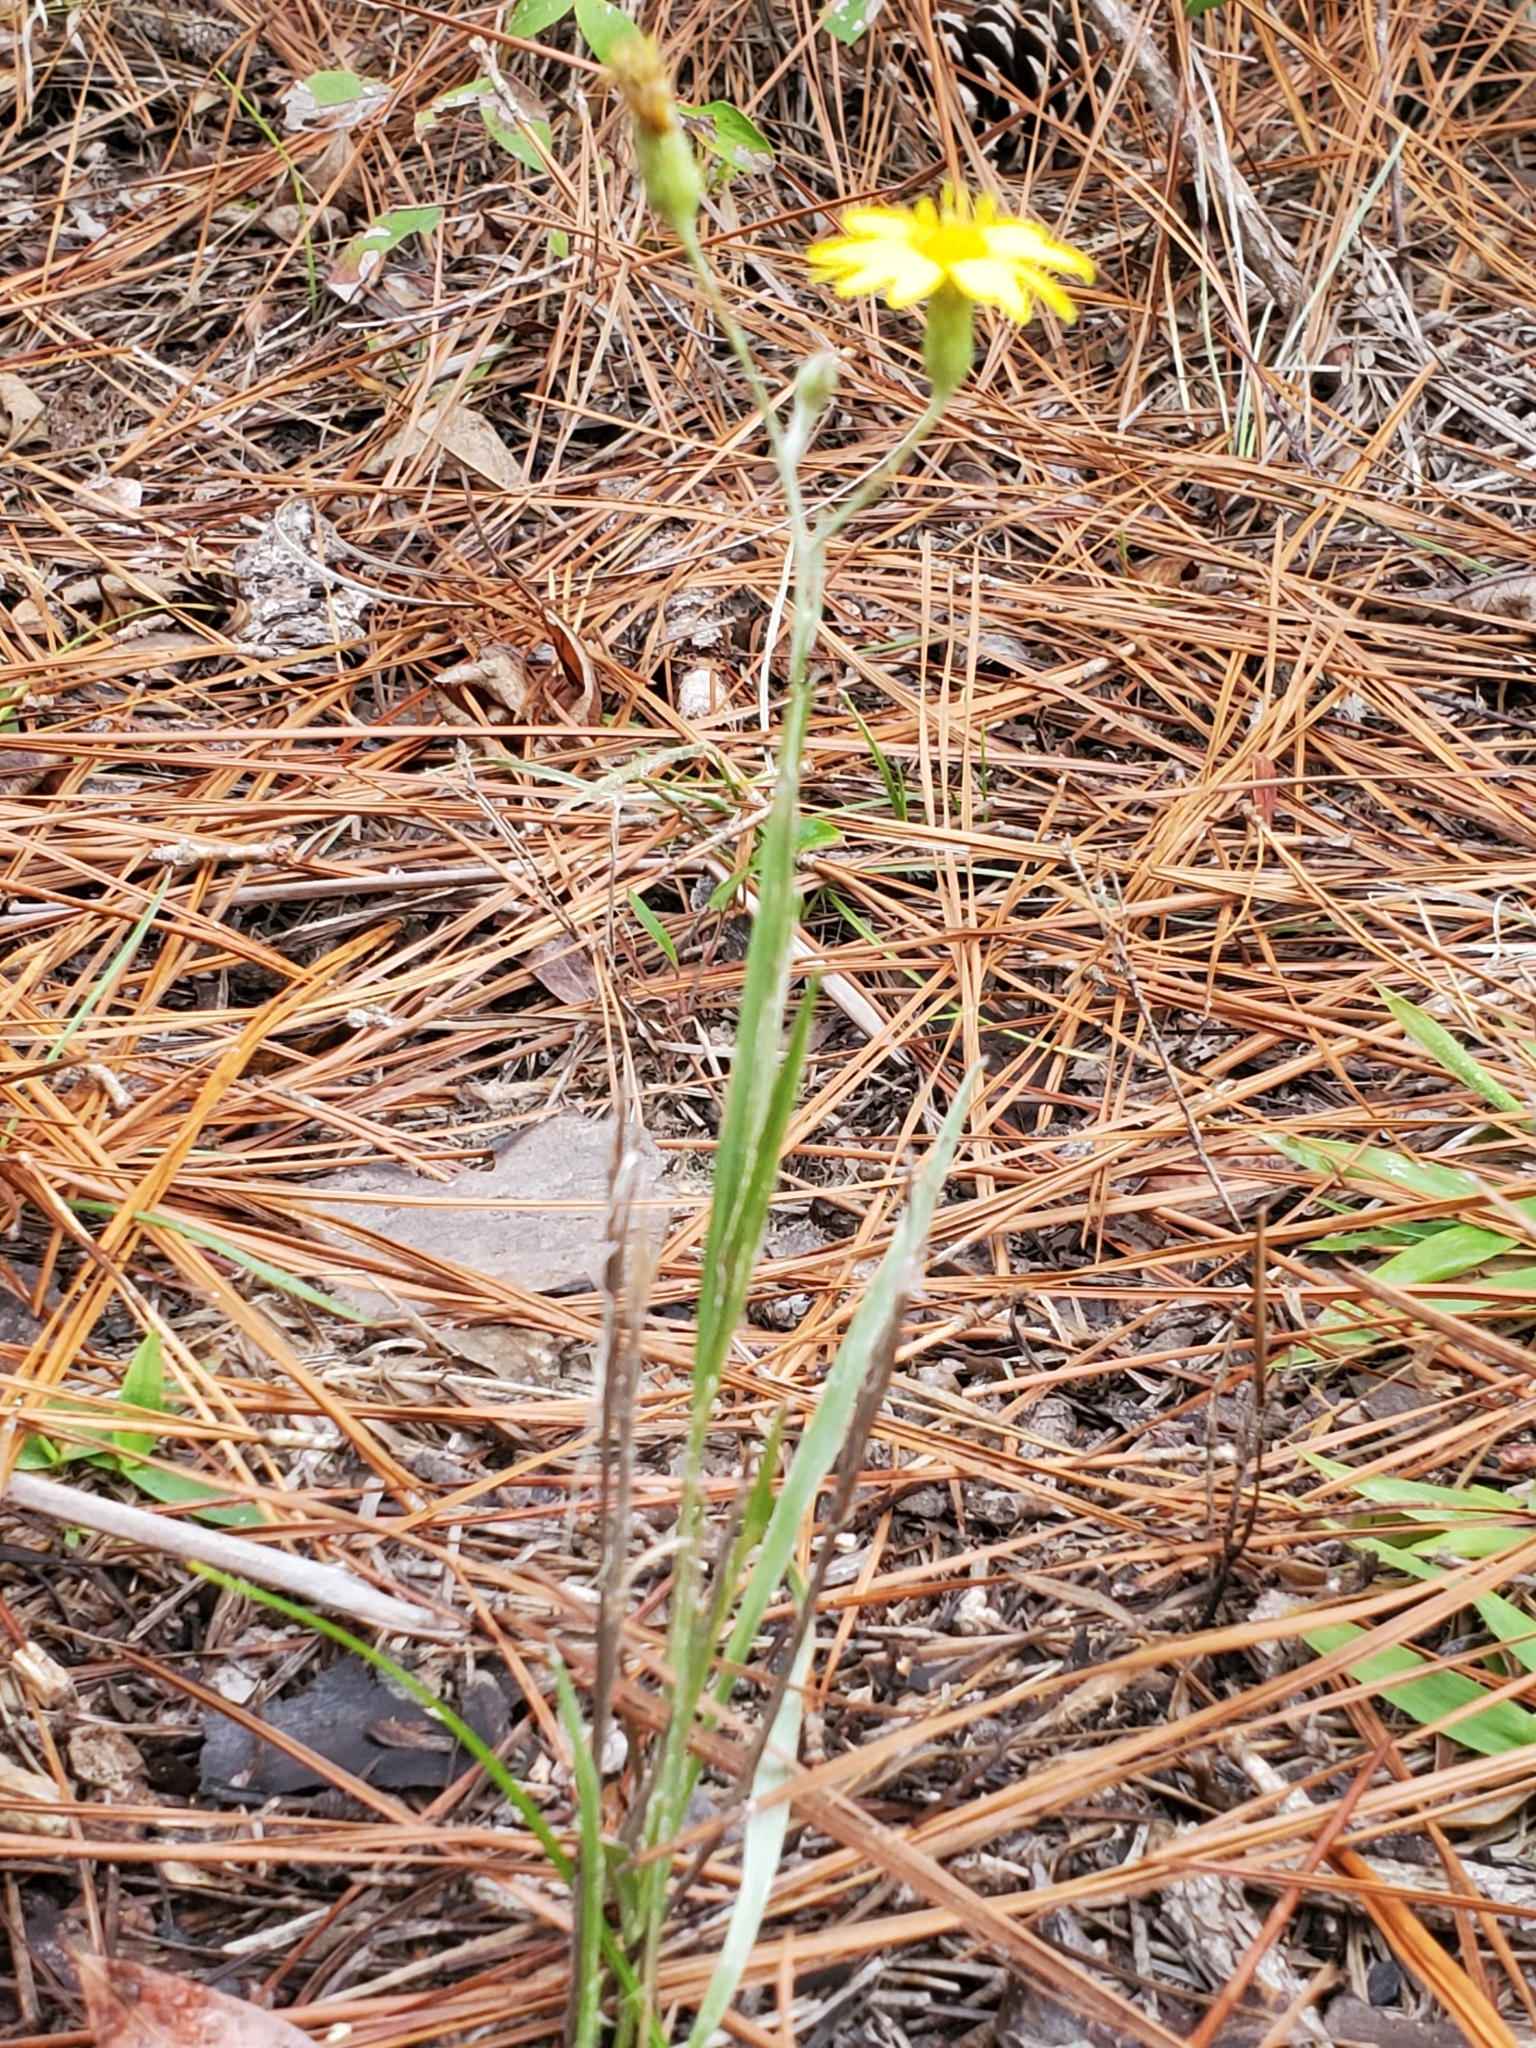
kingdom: Plantae
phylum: Tracheophyta
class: Magnoliopsida
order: Asterales
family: Asteraceae
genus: Pityopsis
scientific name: Pityopsis graminifolia
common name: Grass-leaf golden-aster
